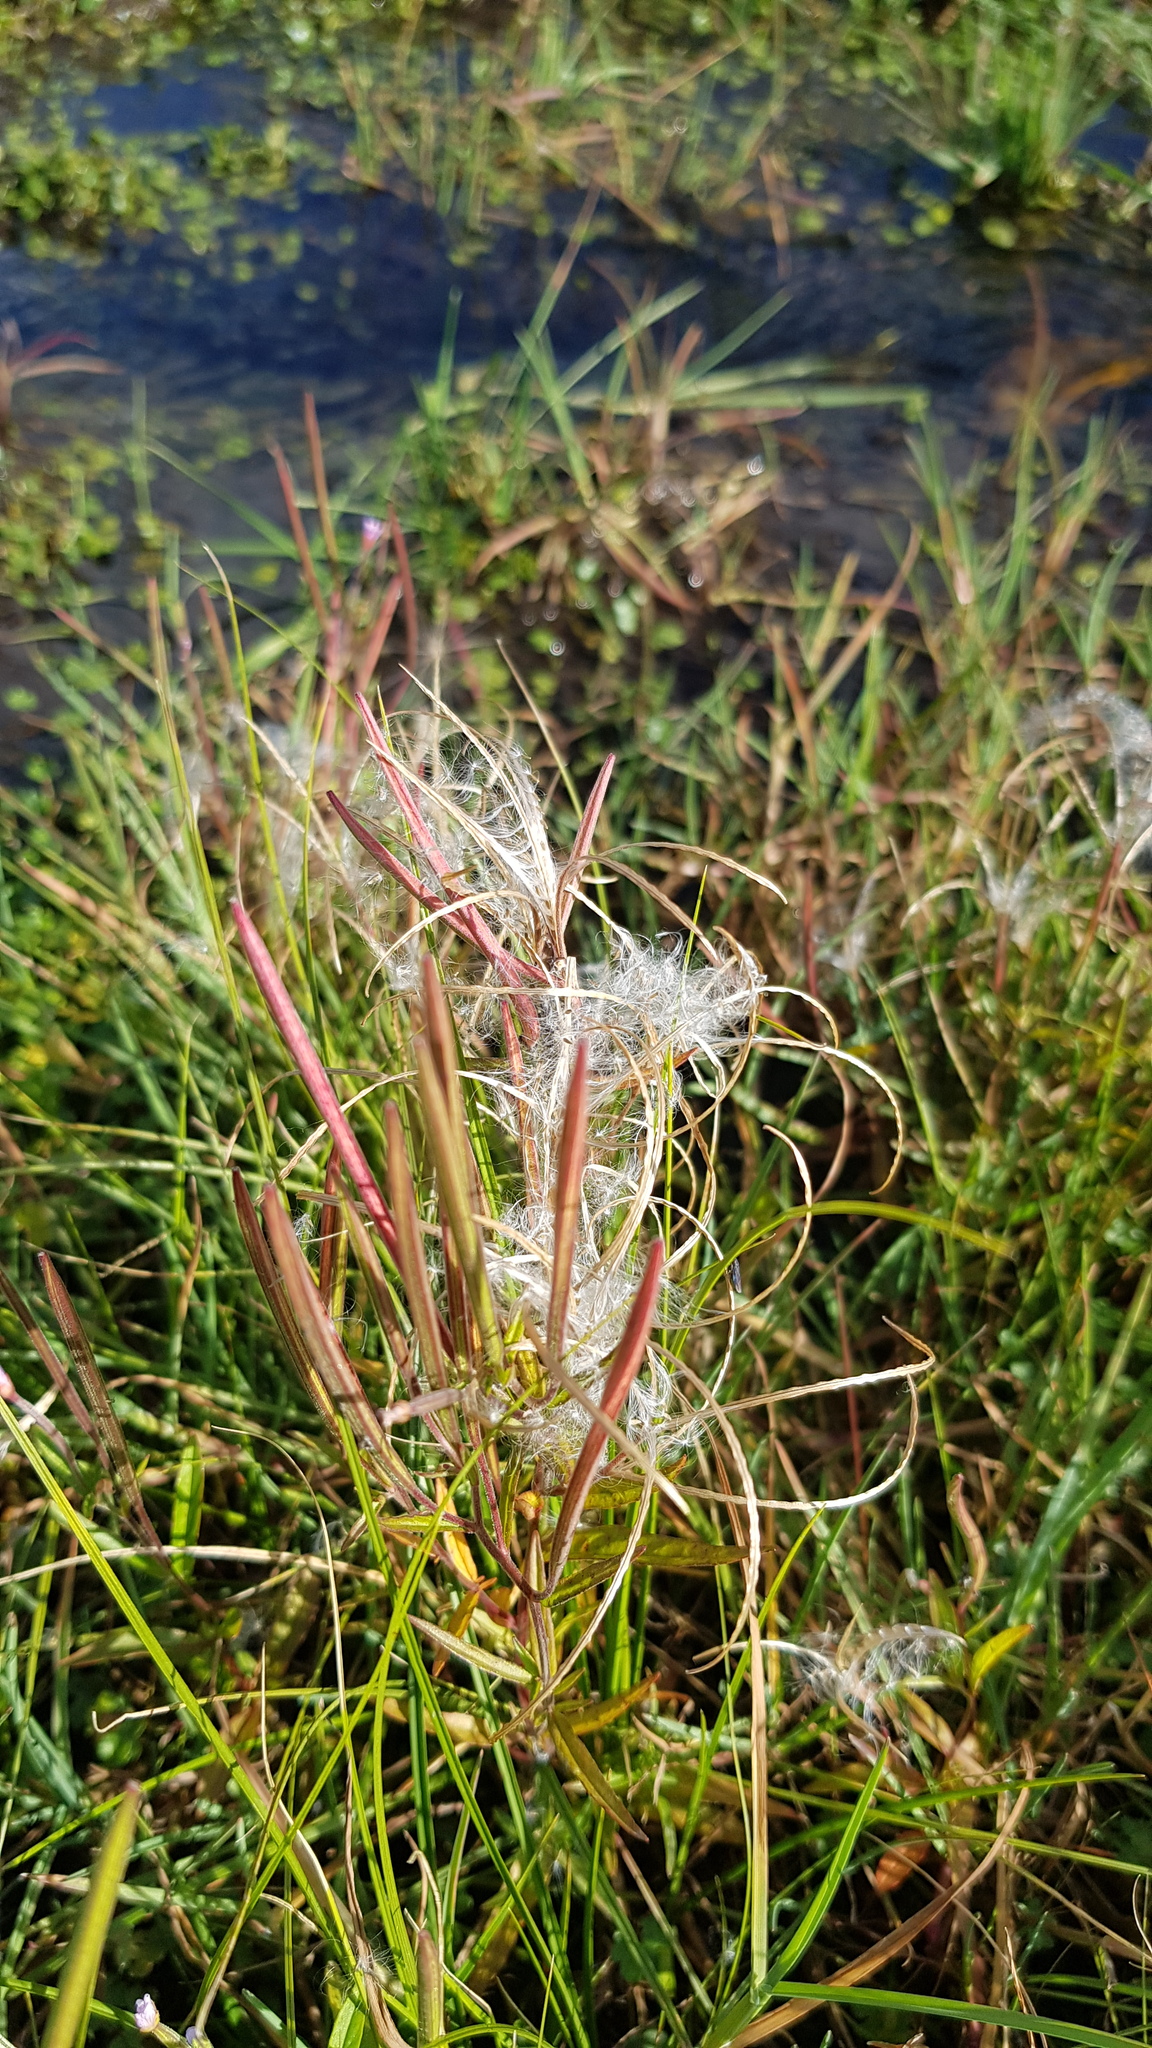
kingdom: Plantae
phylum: Tracheophyta
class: Magnoliopsida
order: Myrtales
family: Onagraceae
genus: Epilobium
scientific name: Epilobium palustre
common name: Marsh willowherb
